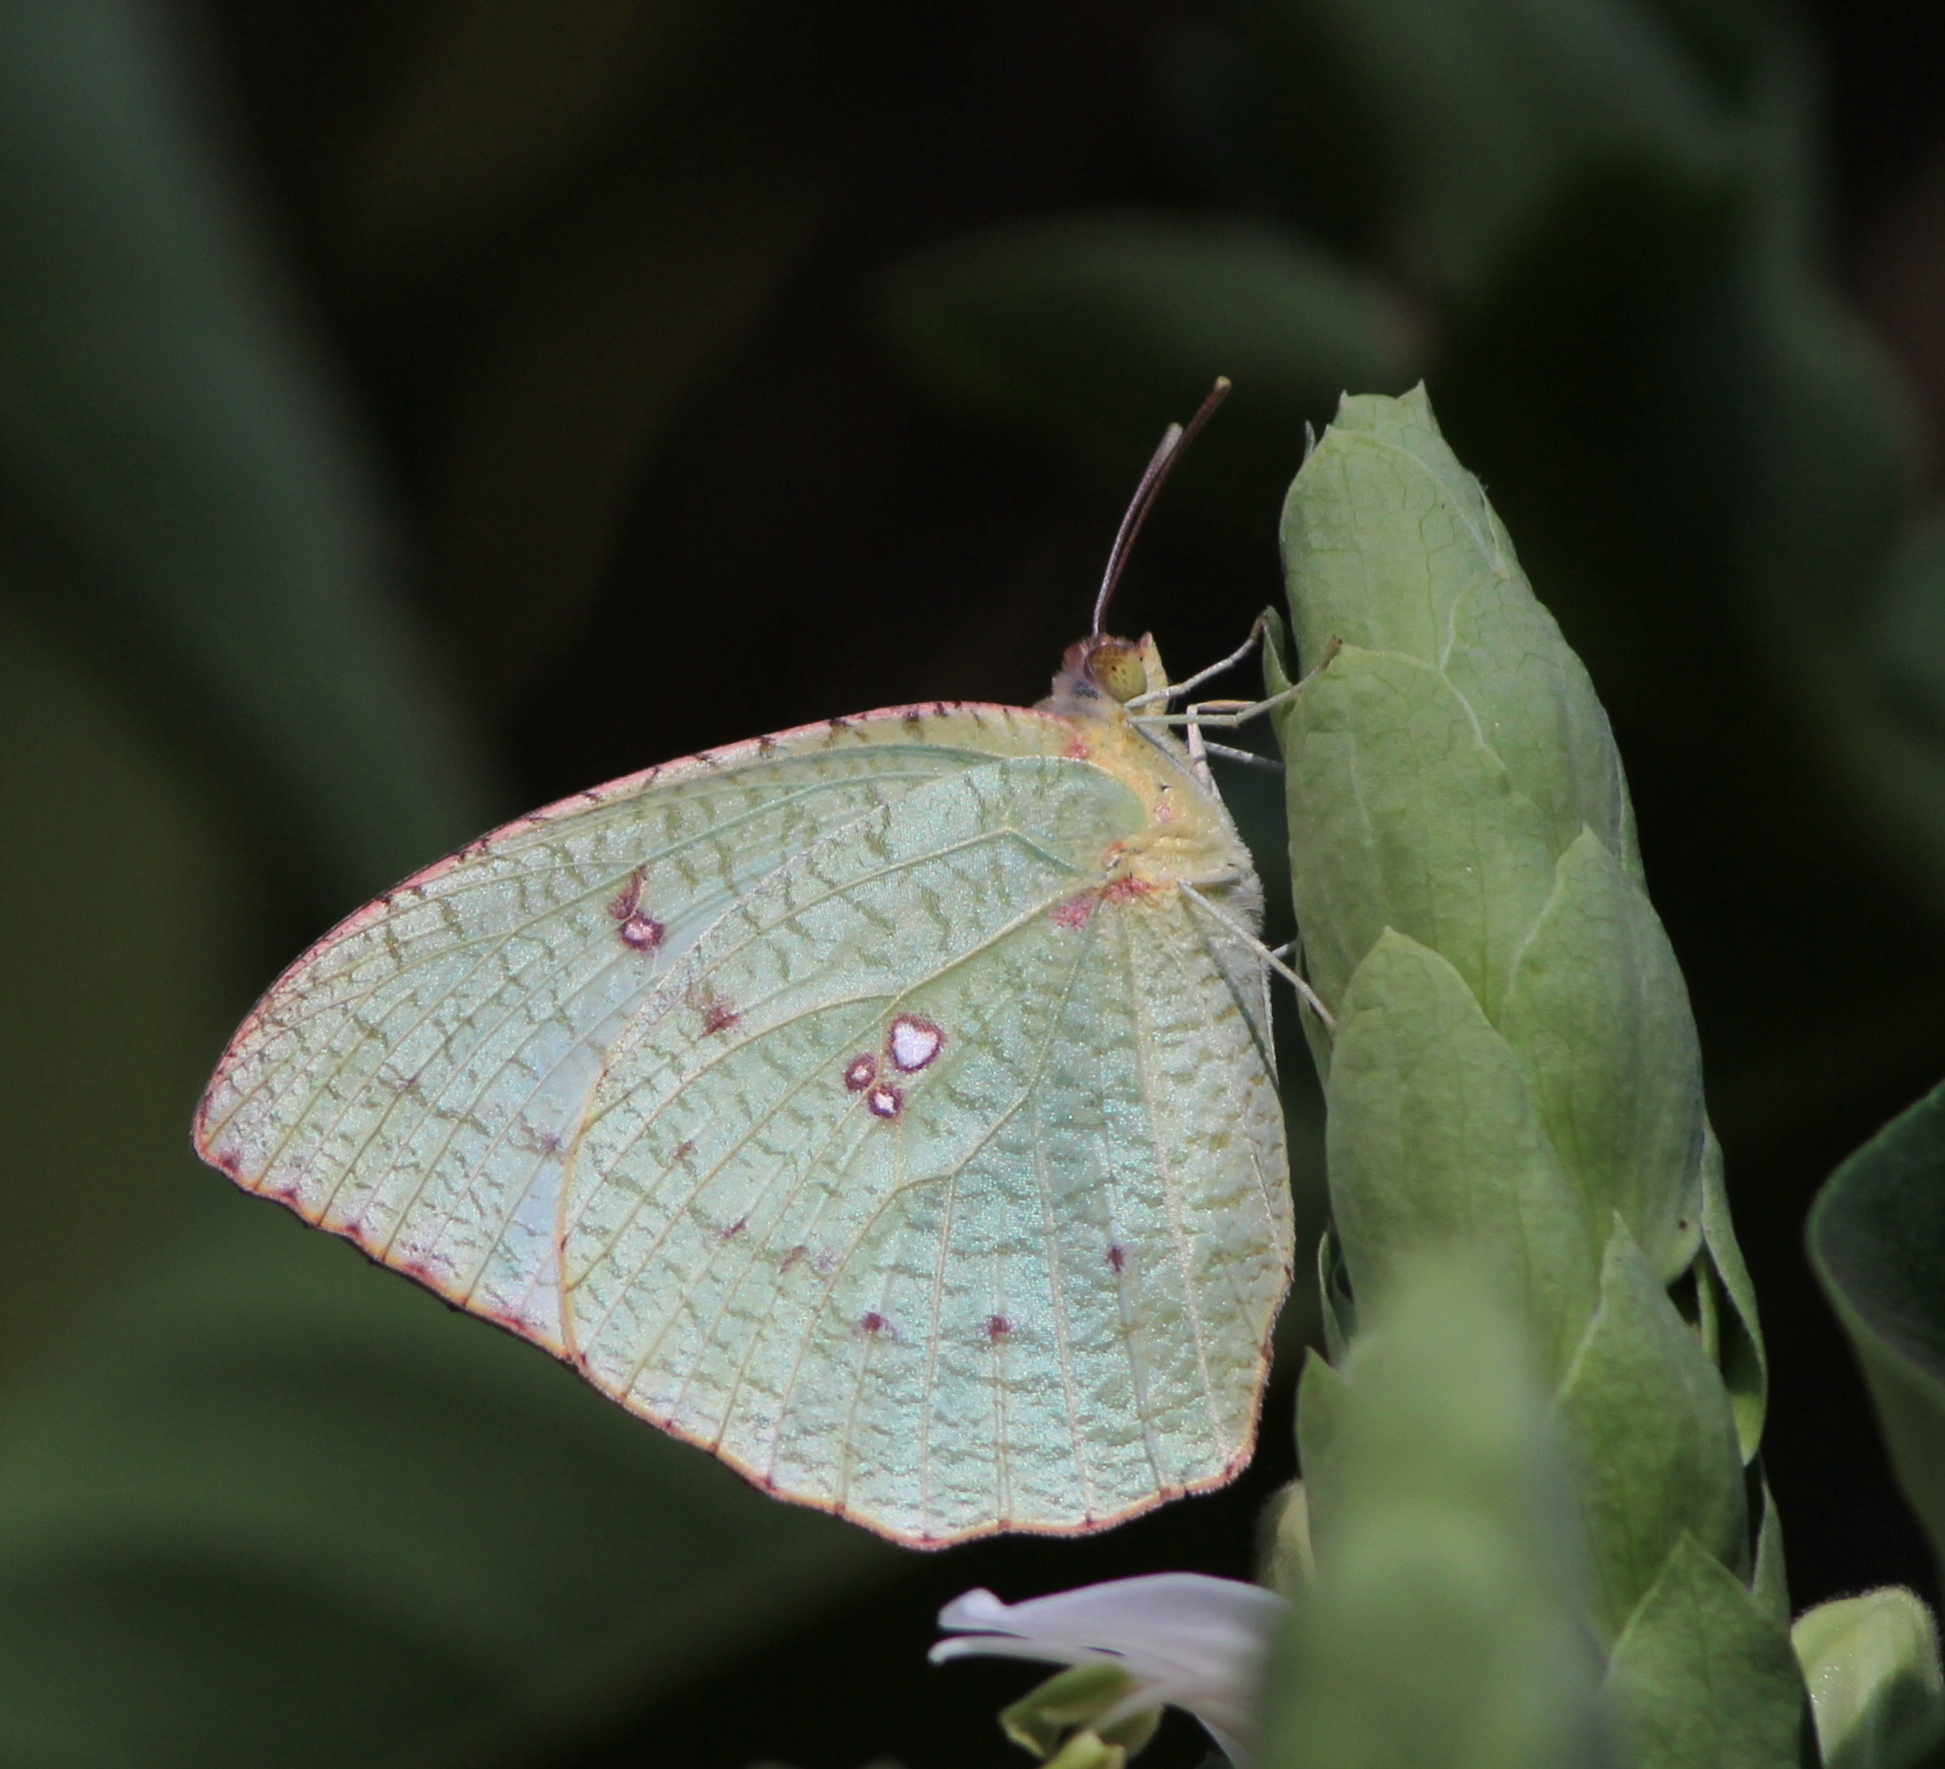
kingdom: Animalia
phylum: Arthropoda
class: Insecta
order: Lepidoptera
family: Pieridae
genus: Catopsilia
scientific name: Catopsilia pyranthe
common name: Mottled emigrant
